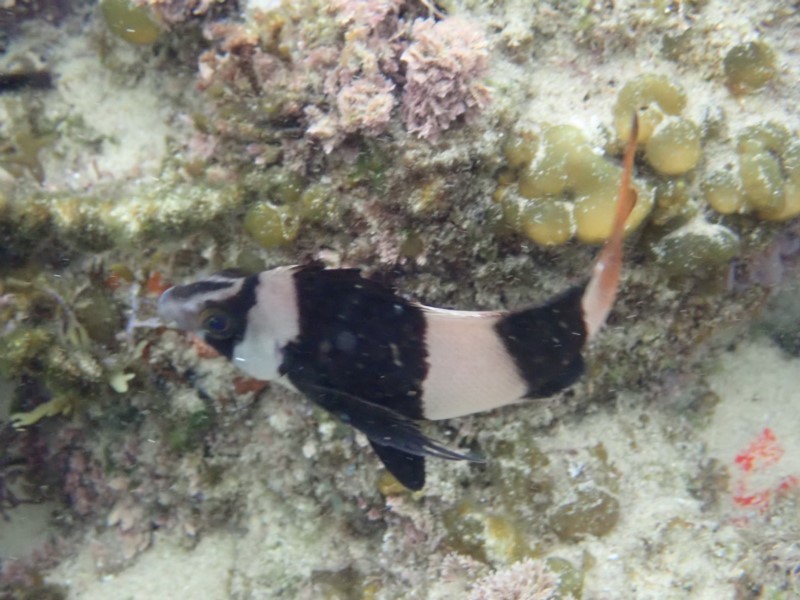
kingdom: Animalia
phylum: Chordata
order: Perciformes
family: Latridae
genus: Pseudogoniistius
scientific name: Pseudogoniistius nigripes
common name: Black-striped morwong
